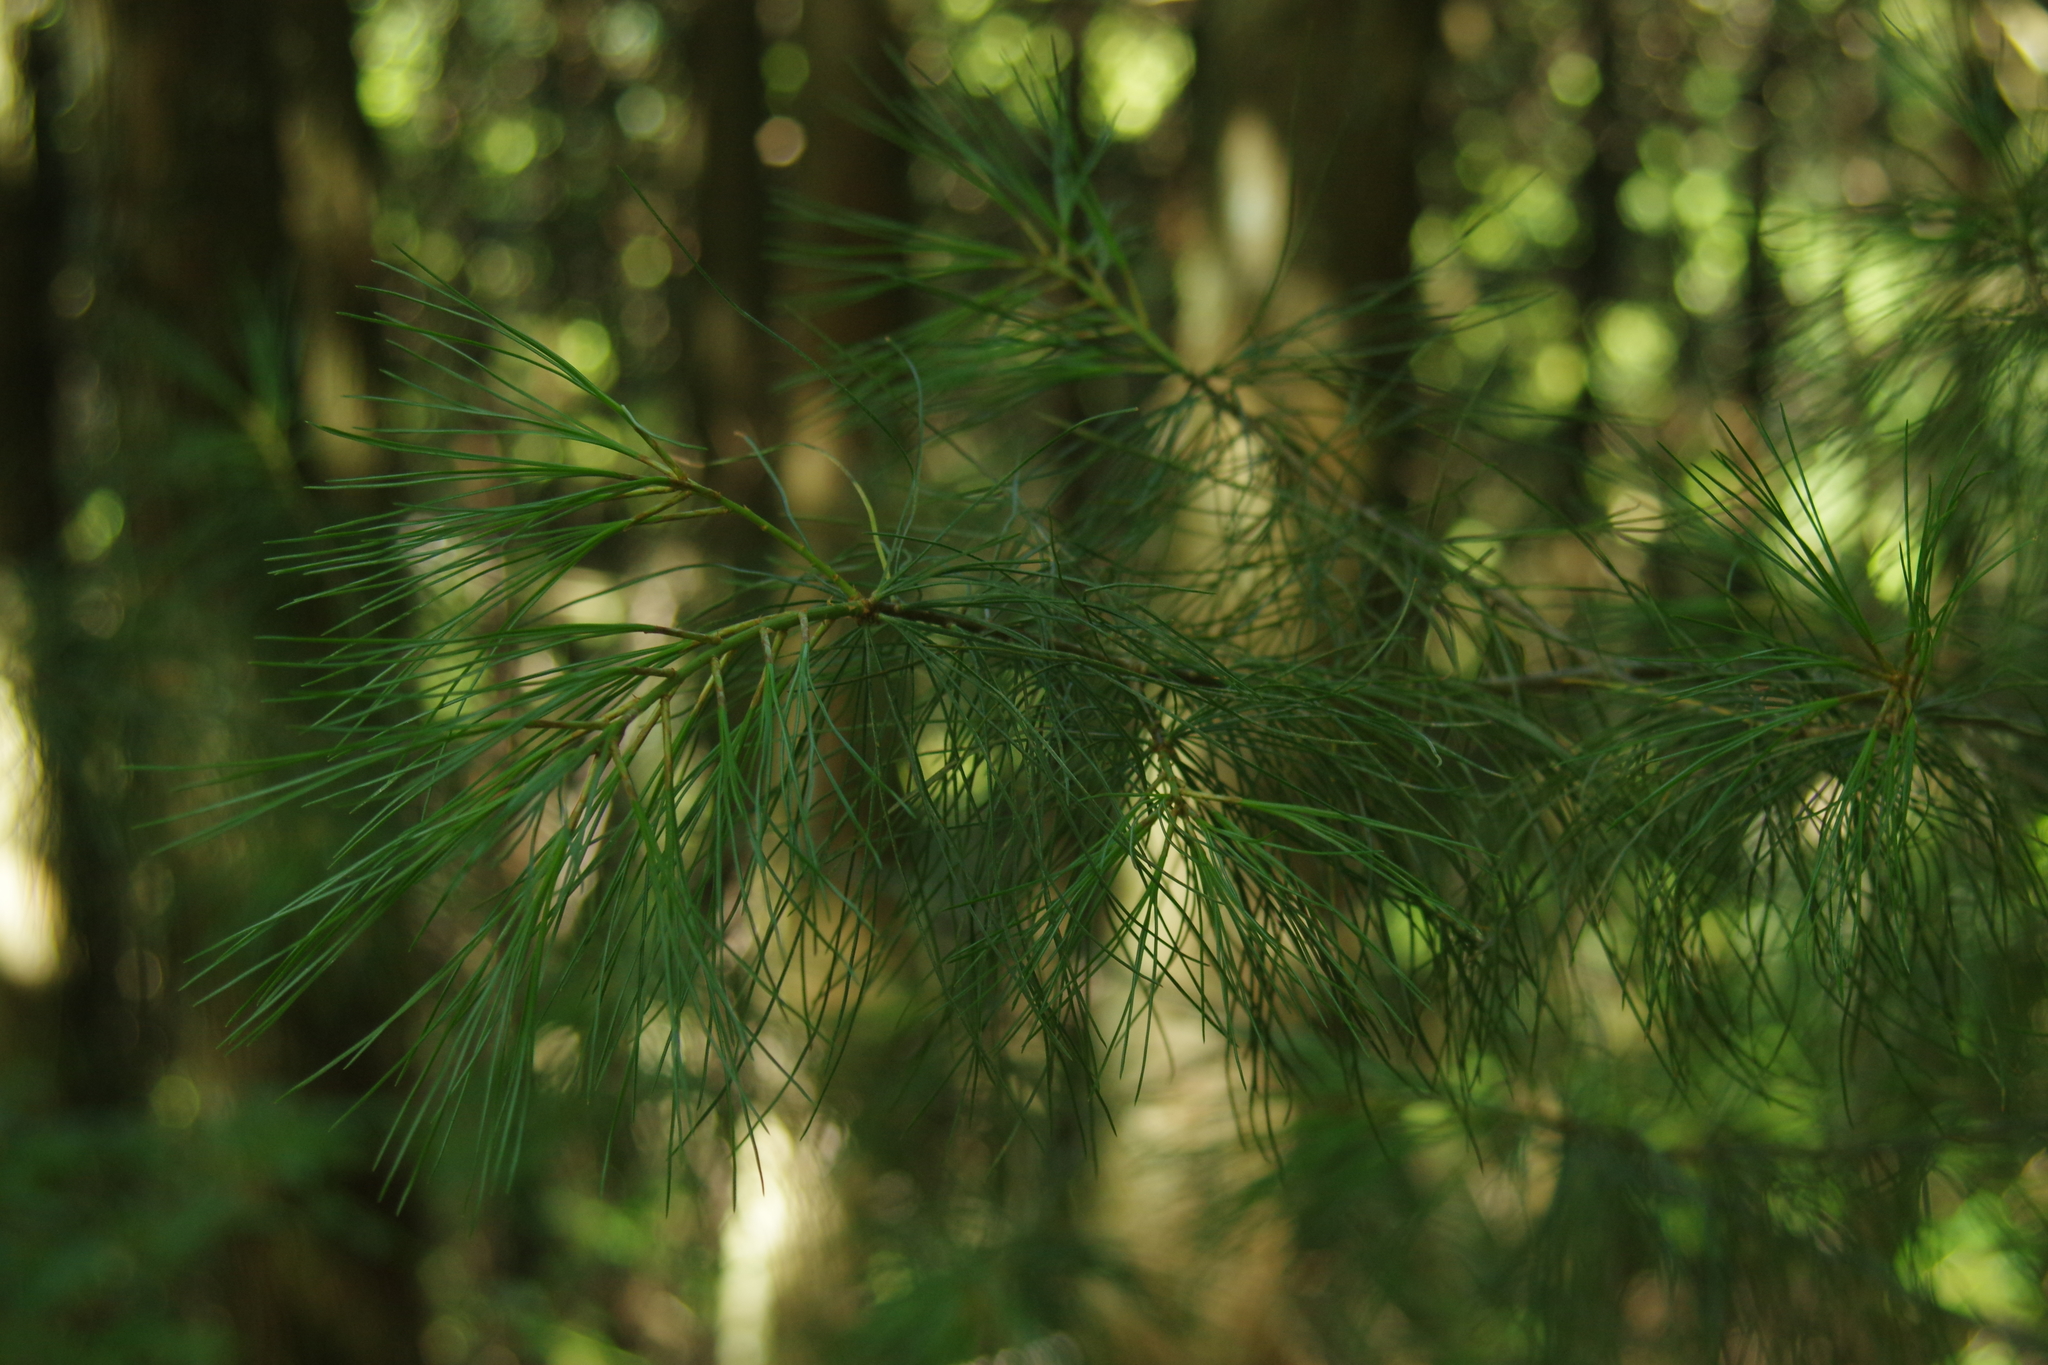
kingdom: Plantae
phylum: Tracheophyta
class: Pinopsida
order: Pinales
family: Pinaceae
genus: Pinus
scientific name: Pinus morrisonicola
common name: Taiwan white pine
